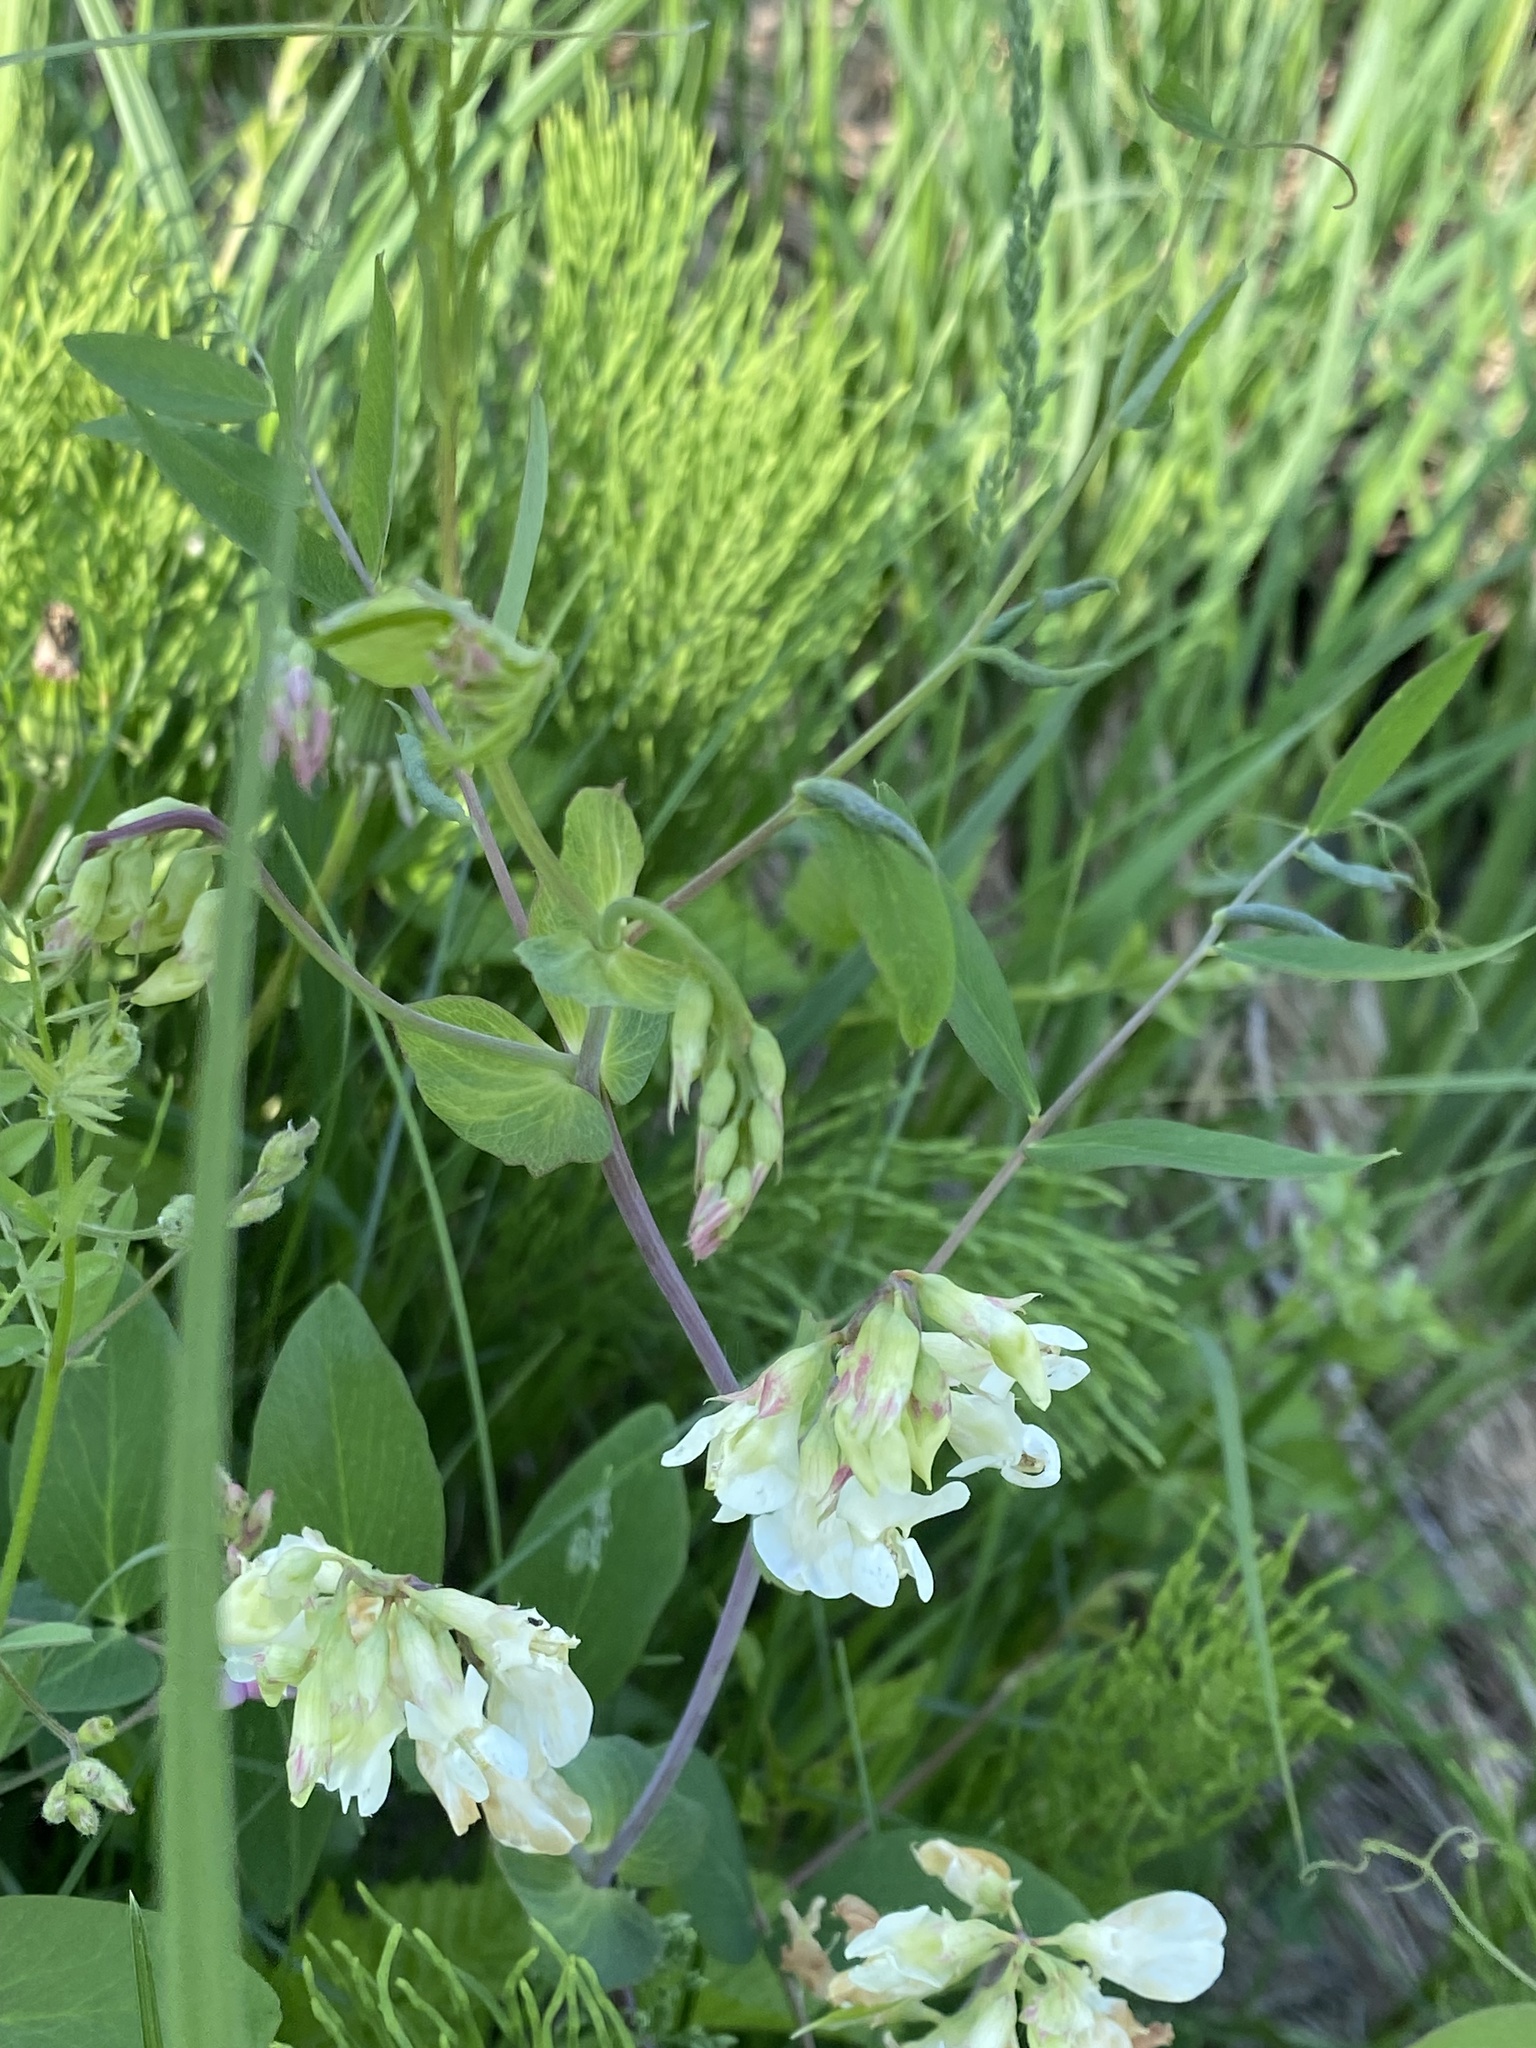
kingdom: Plantae
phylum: Tracheophyta
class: Magnoliopsida
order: Fabales
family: Fabaceae
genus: Lathyrus
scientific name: Lathyrus ochroleucus
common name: Pale vetchling
